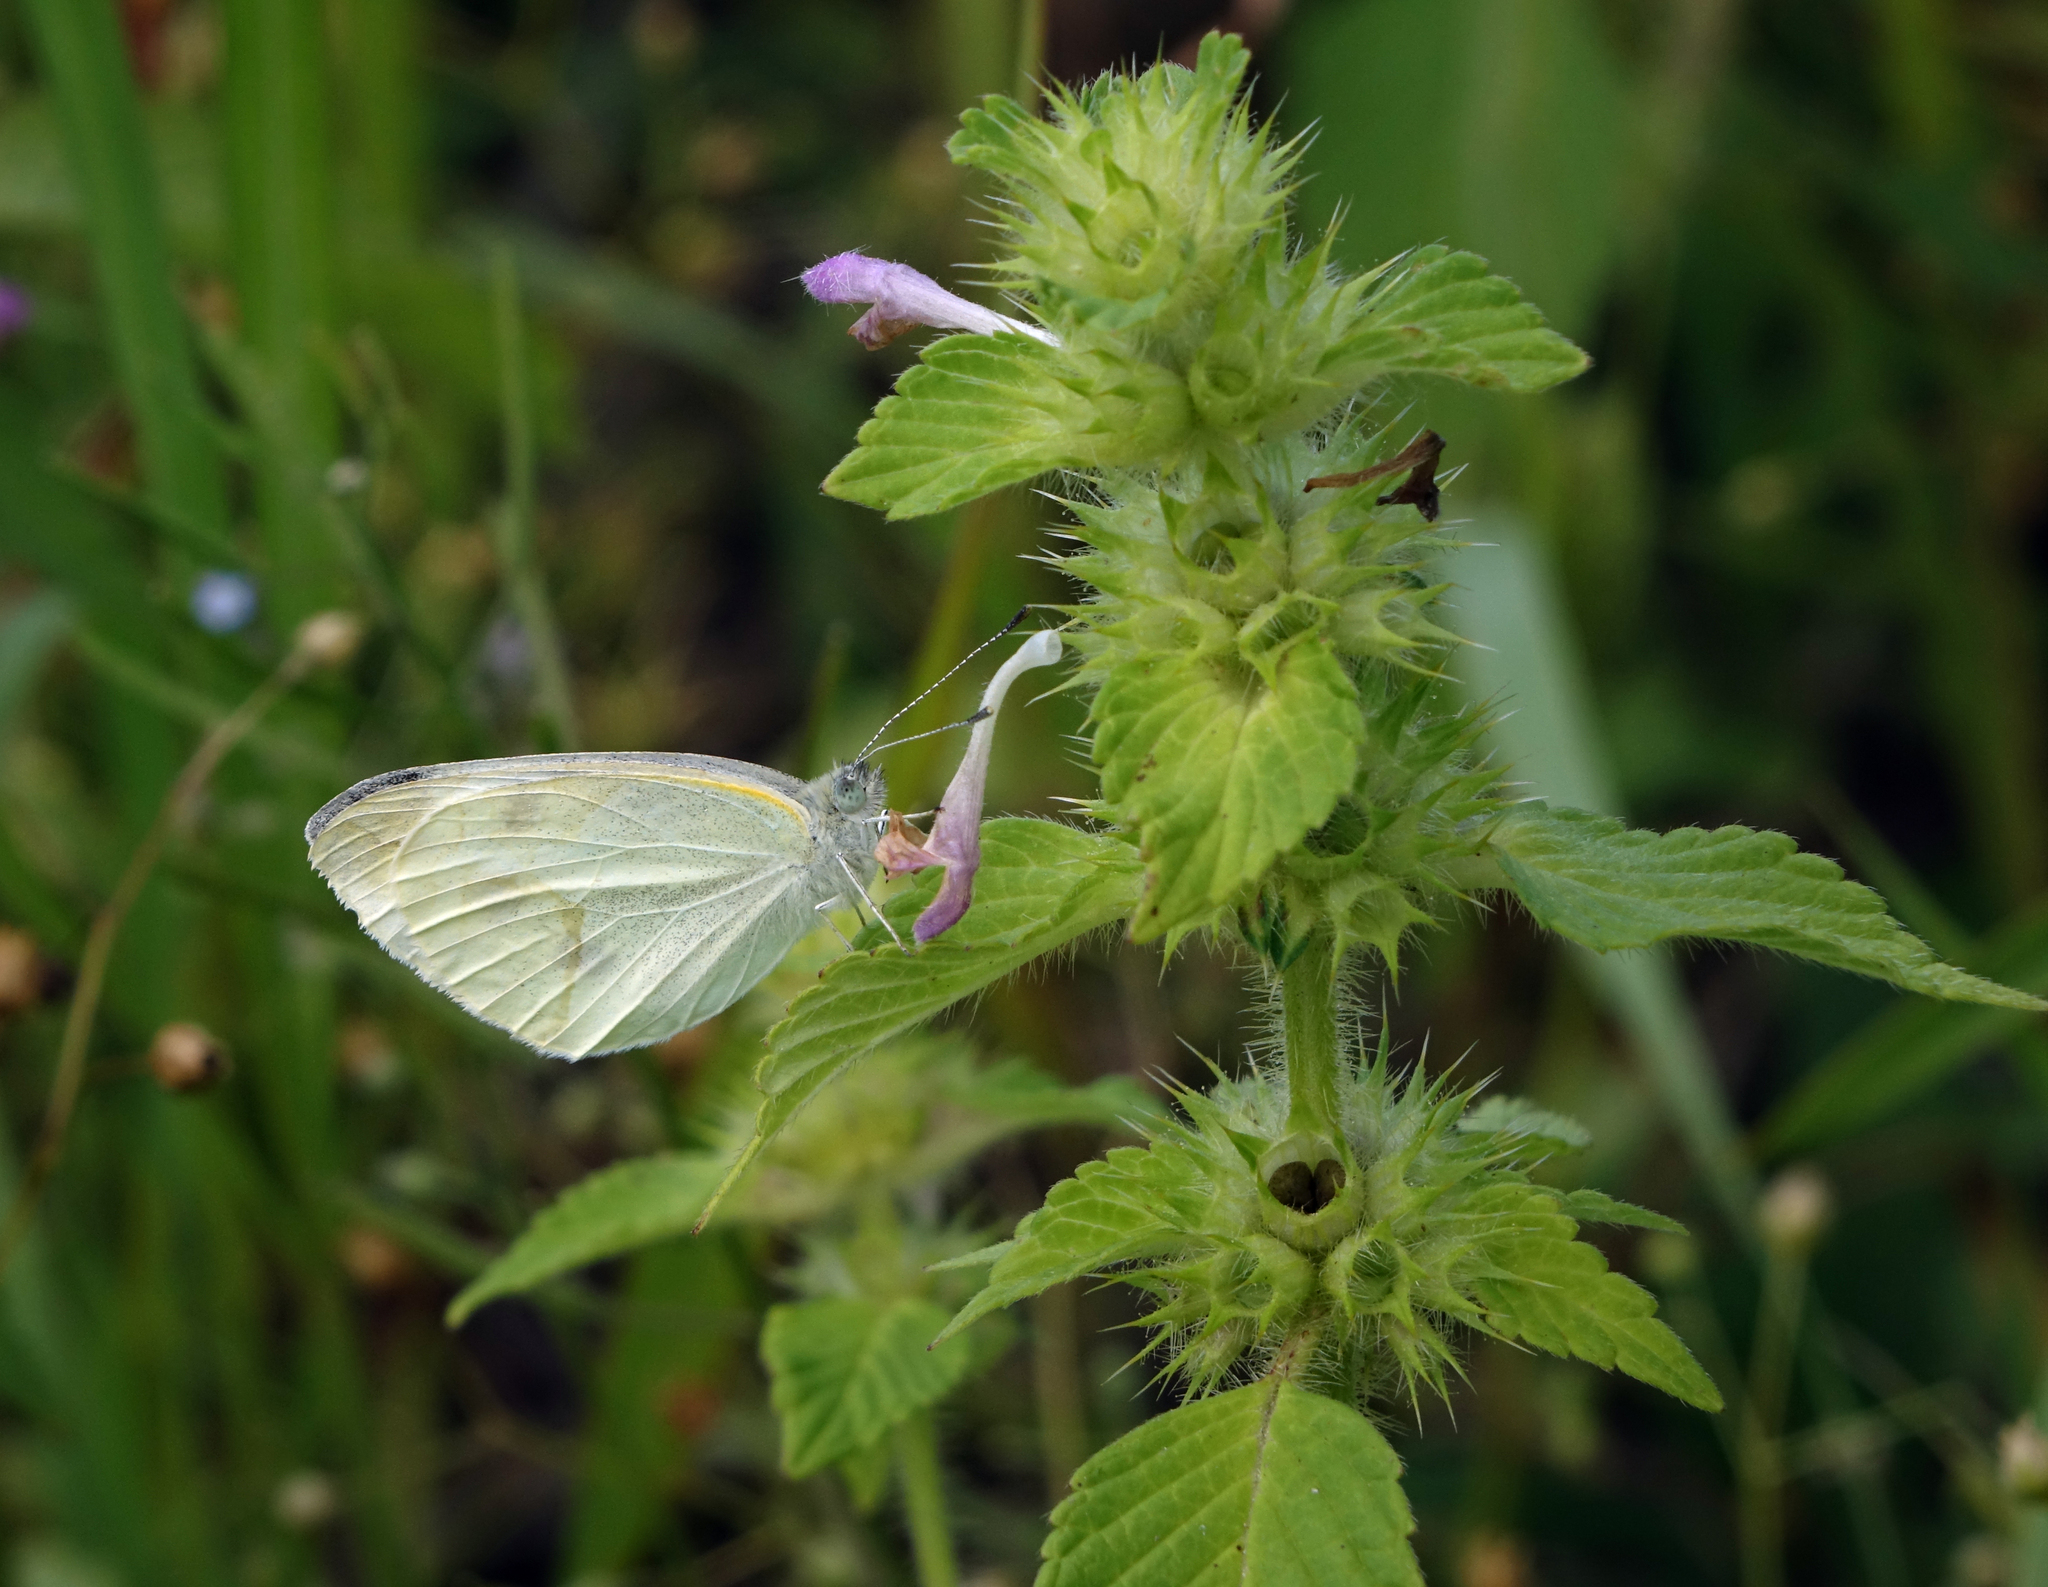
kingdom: Plantae
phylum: Tracheophyta
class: Magnoliopsida
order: Lamiales
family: Lamiaceae
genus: Galeopsis
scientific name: Galeopsis bifida
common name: Bifid hemp-nettle
